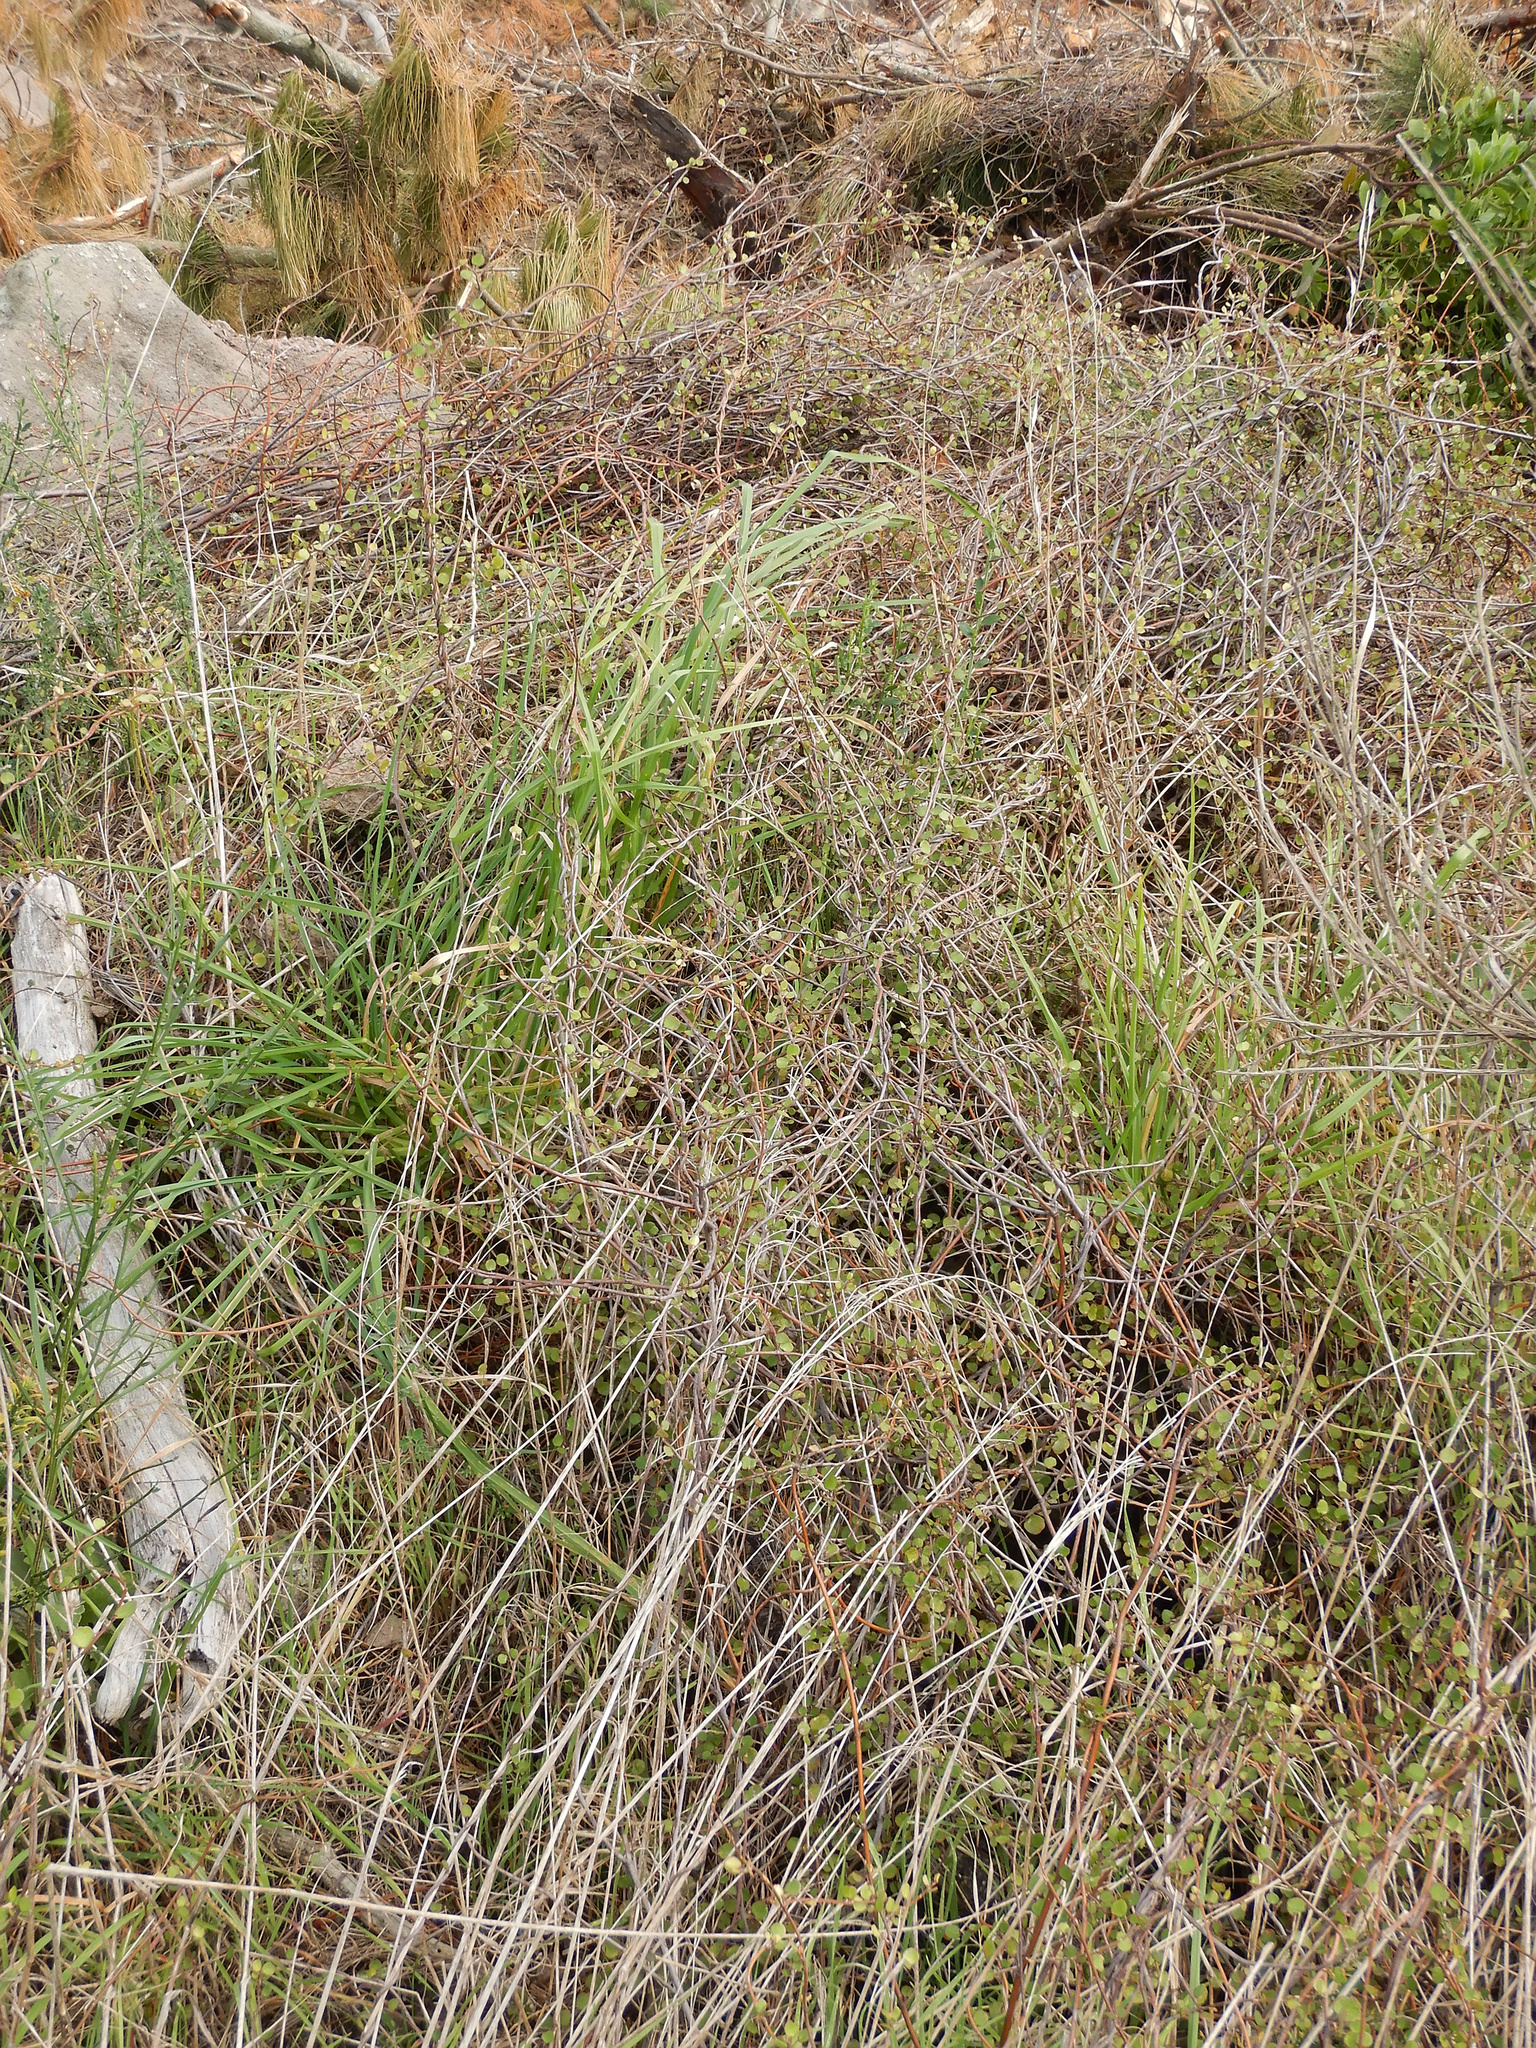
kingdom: Plantae
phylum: Tracheophyta
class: Magnoliopsida
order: Caryophyllales
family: Polygonaceae
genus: Muehlenbeckia
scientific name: Muehlenbeckia complexa
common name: Wireplant
